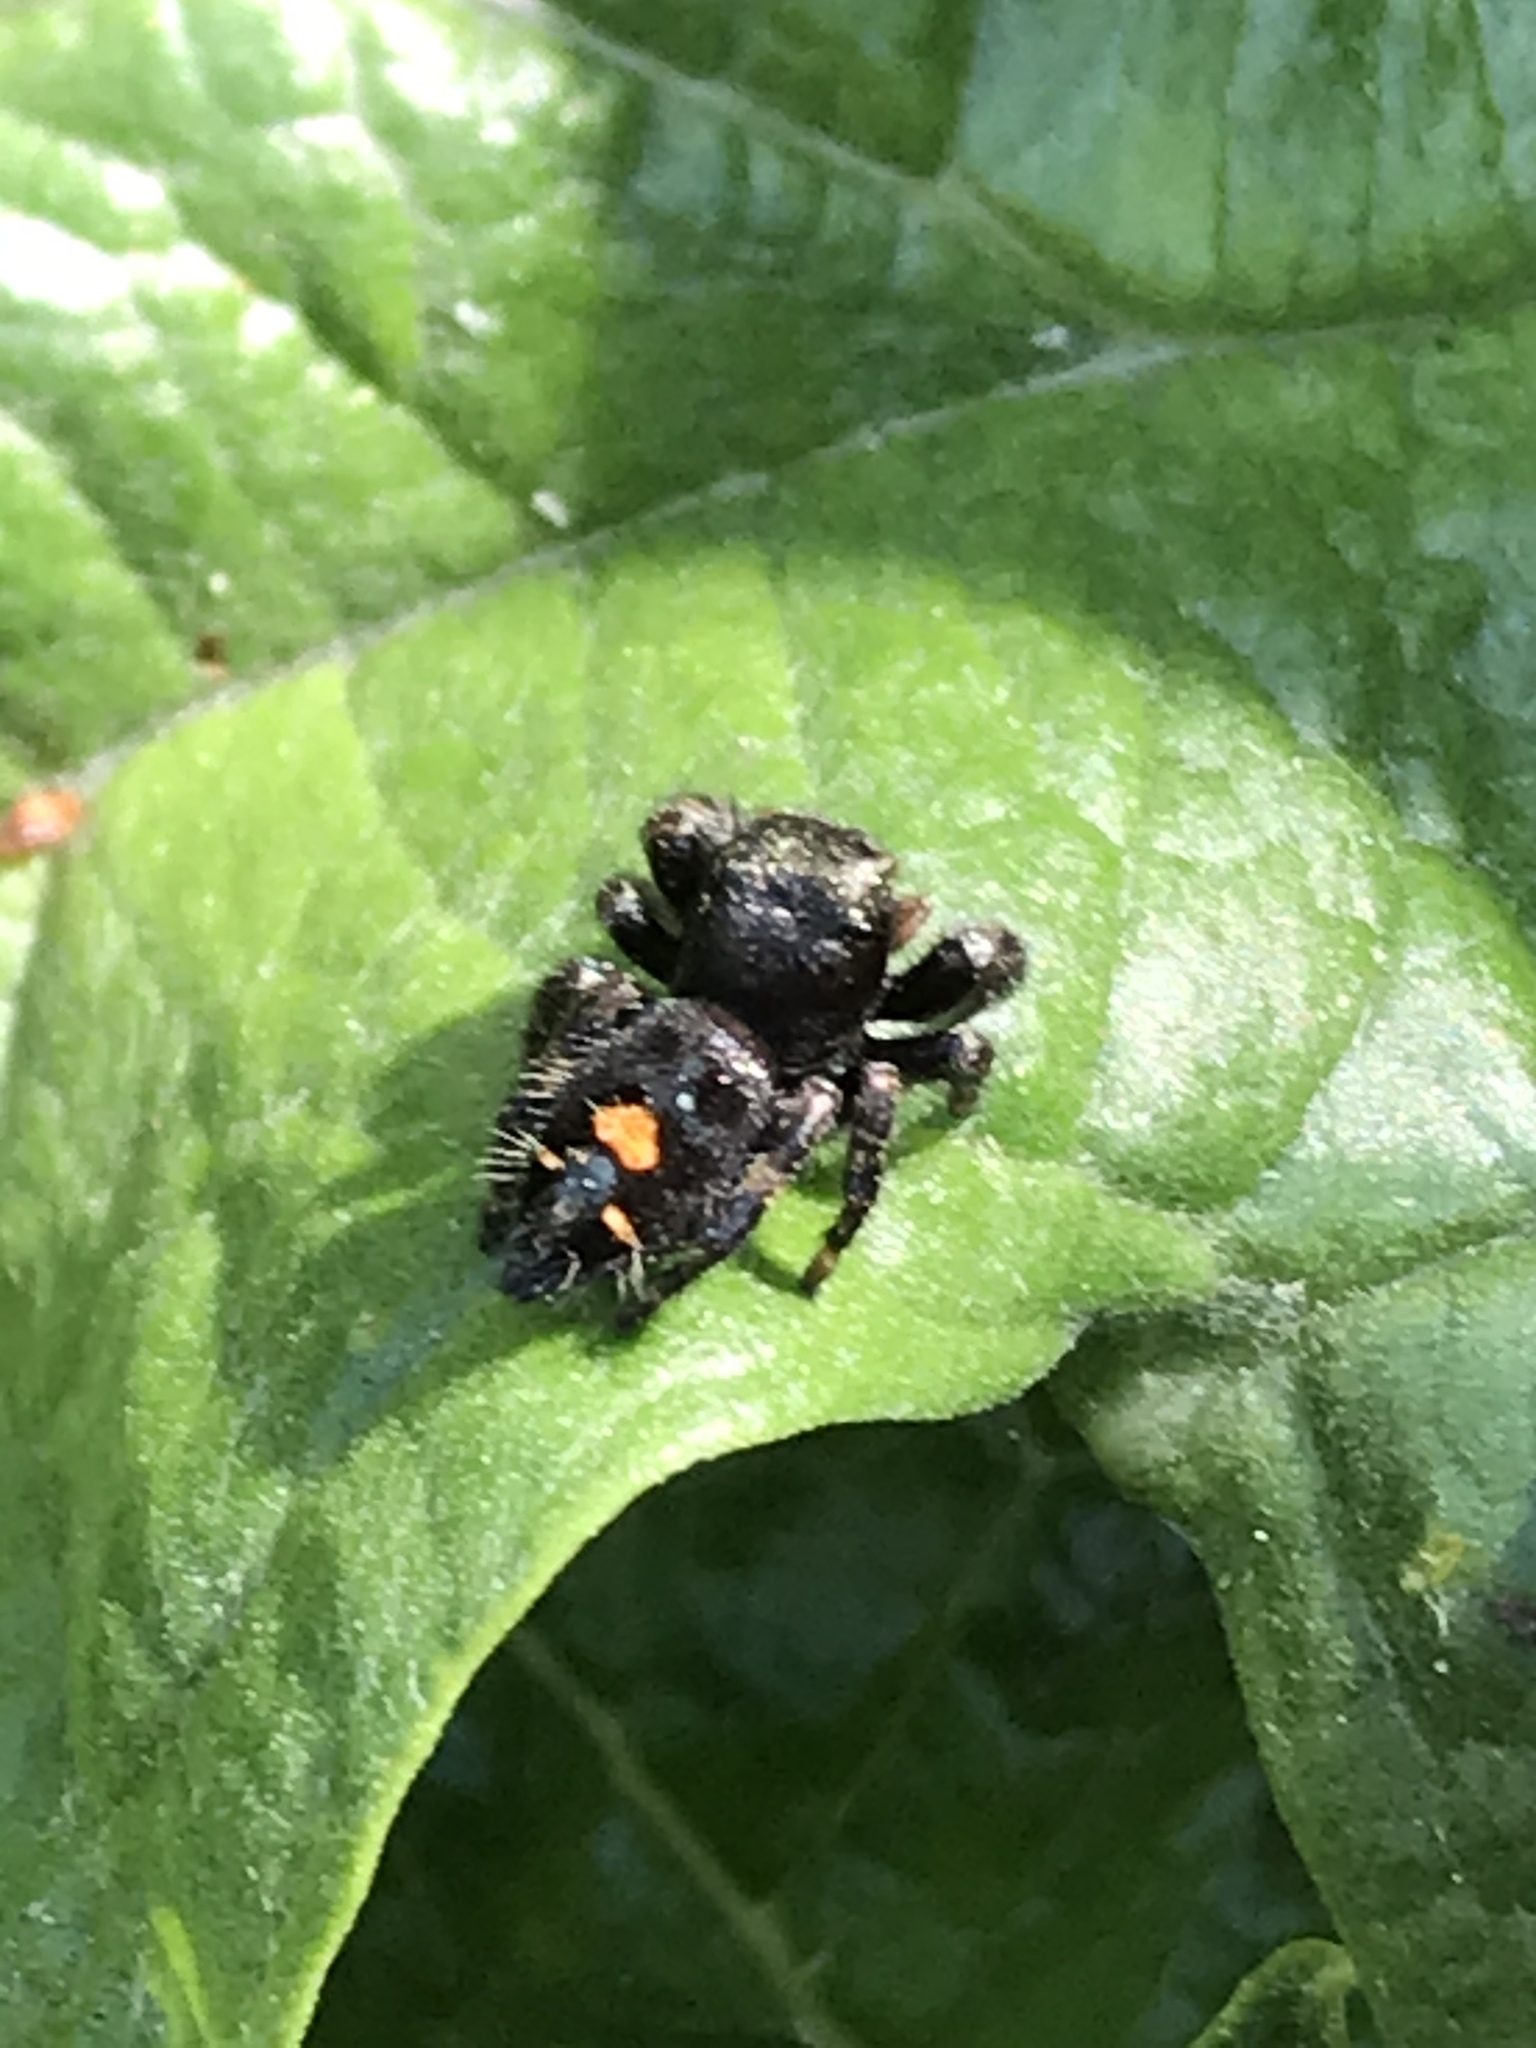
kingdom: Animalia
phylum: Arthropoda
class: Arachnida
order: Araneae
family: Salticidae
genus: Phidippus
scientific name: Phidippus audax
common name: Bold jumper
